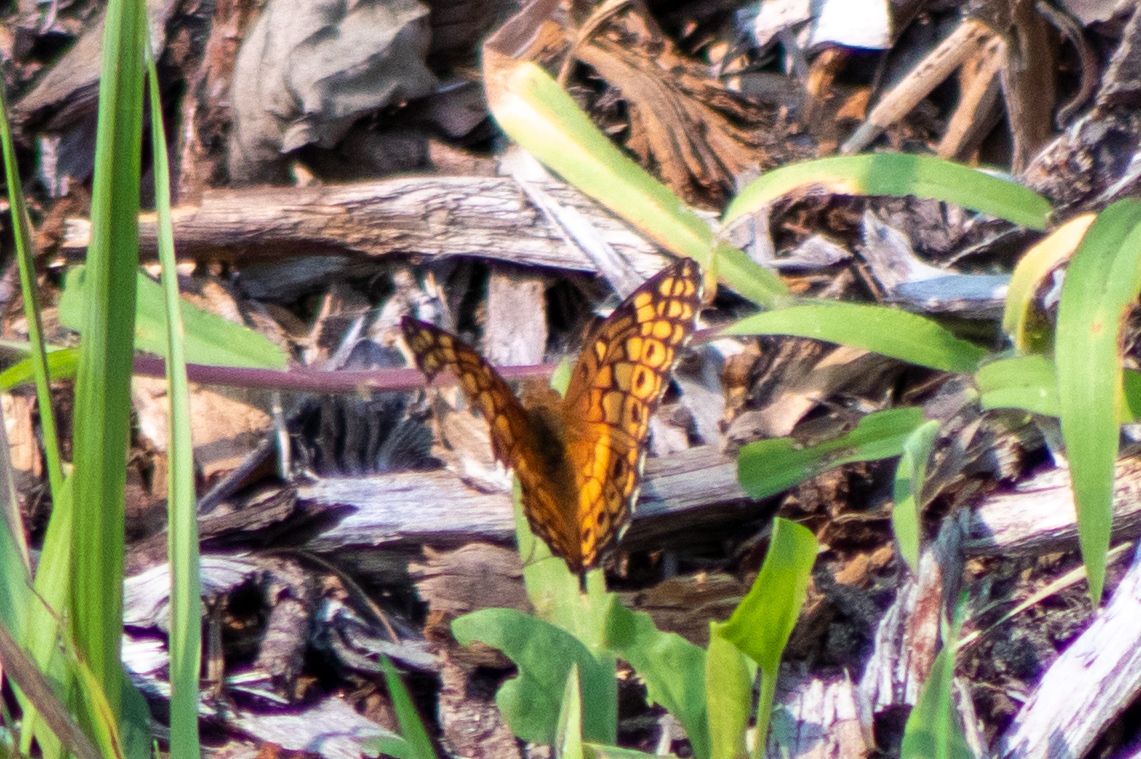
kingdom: Animalia
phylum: Arthropoda
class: Insecta
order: Lepidoptera
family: Nymphalidae
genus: Euptoieta
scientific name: Euptoieta claudia
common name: Variegated fritillary
